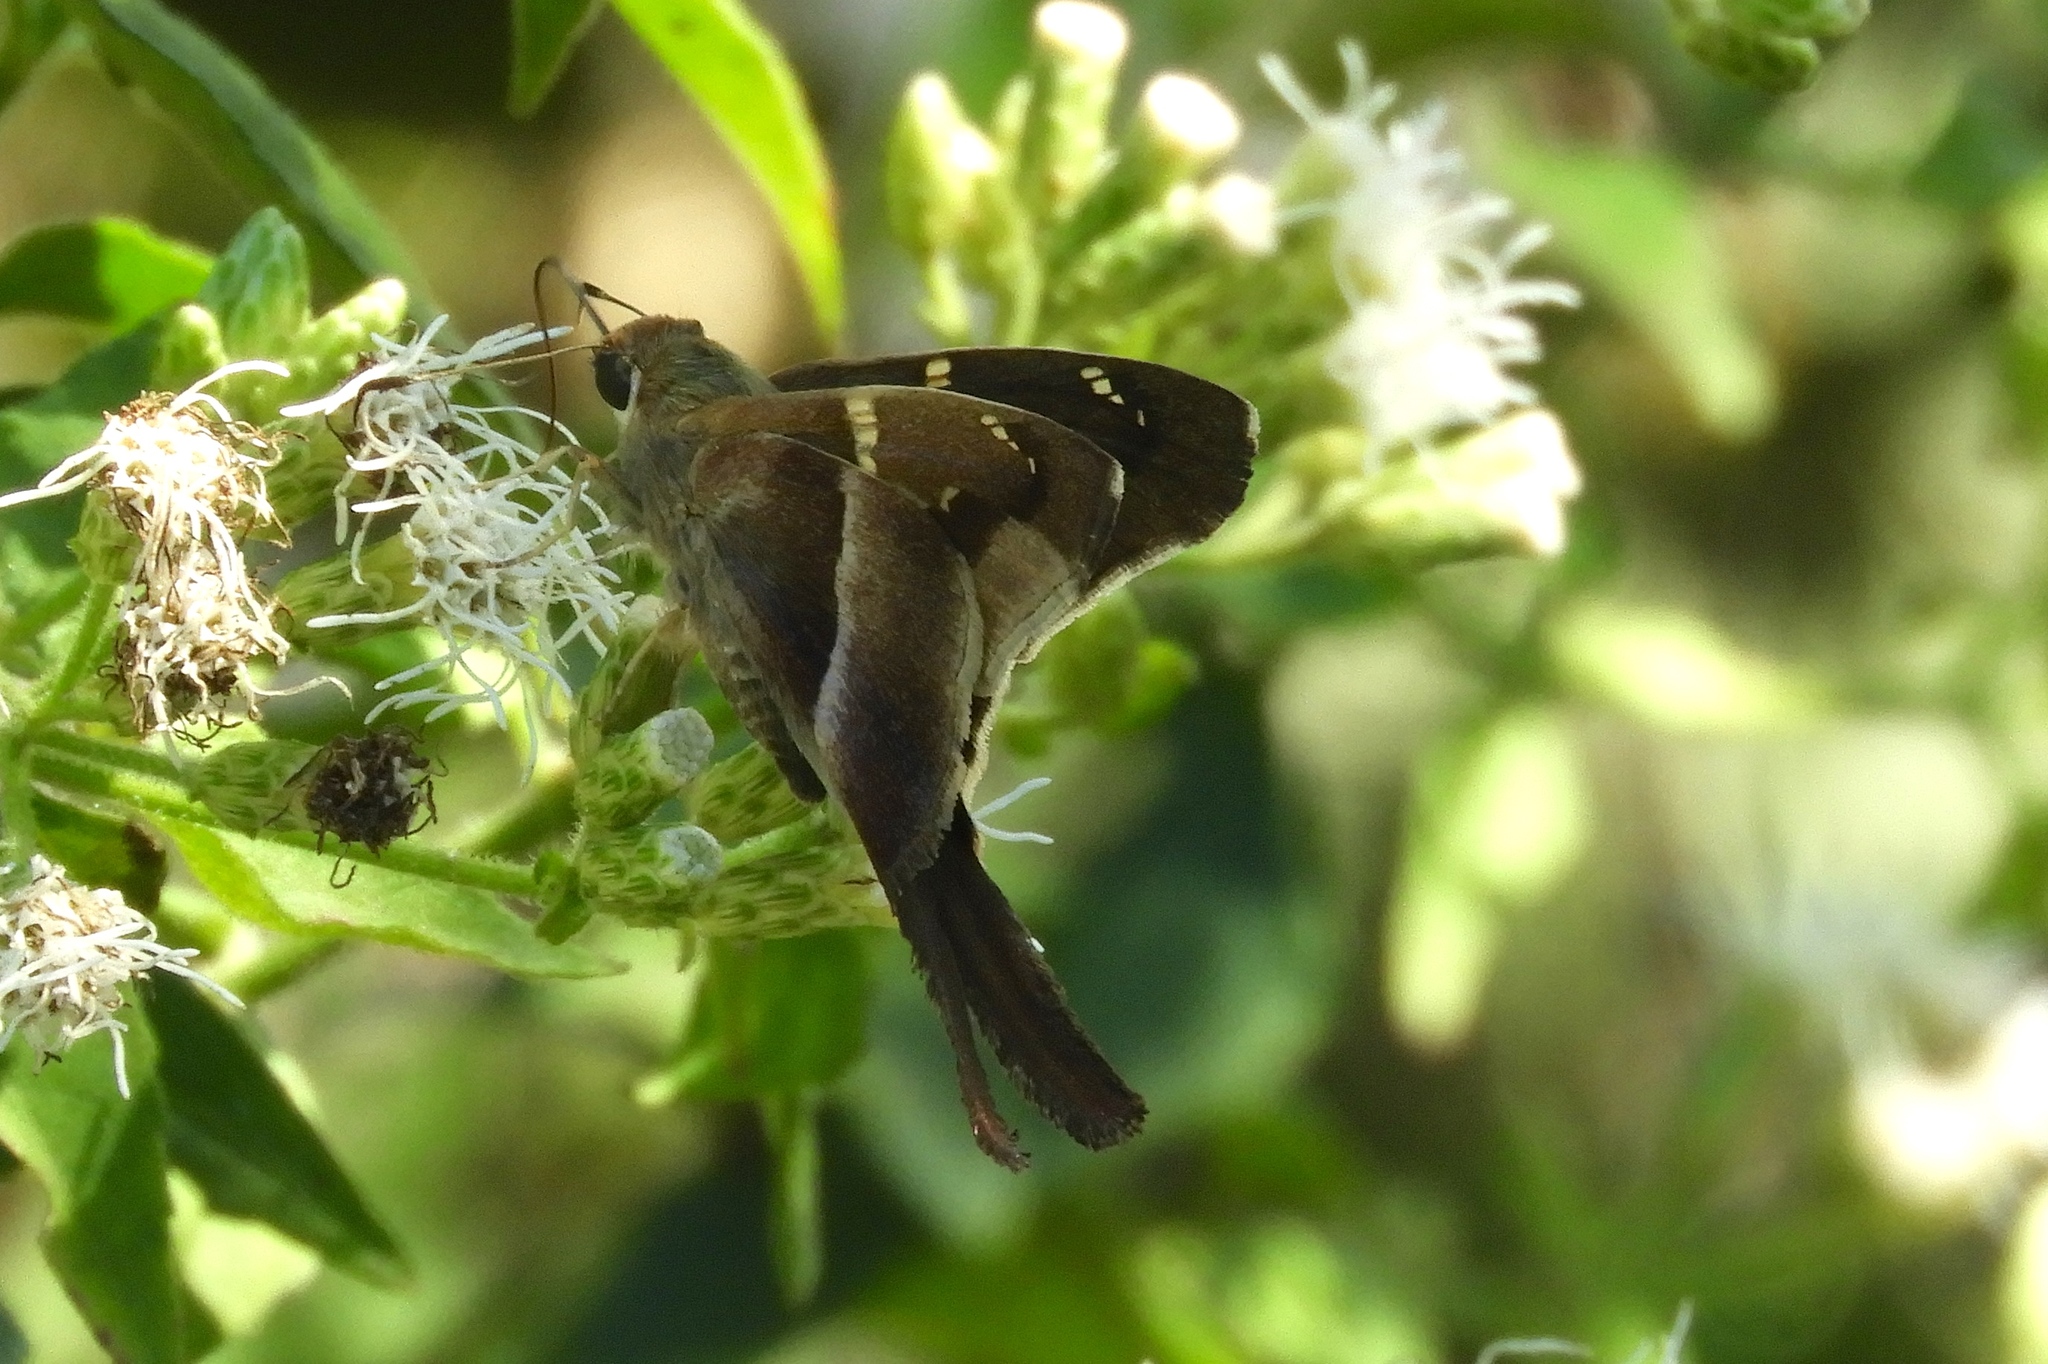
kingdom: Animalia
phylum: Arthropoda
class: Insecta
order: Lepidoptera
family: Hesperiidae
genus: Aguna
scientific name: Aguna metophis
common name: Tailed aguna
